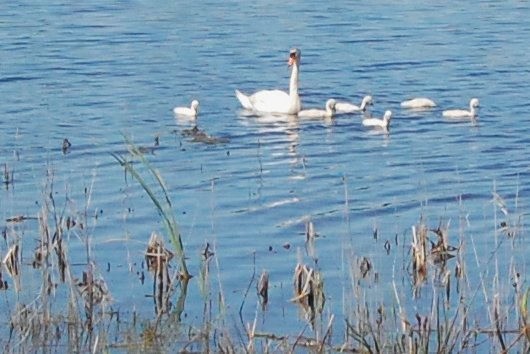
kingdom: Animalia
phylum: Chordata
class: Aves
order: Anseriformes
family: Anatidae
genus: Cygnus
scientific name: Cygnus olor
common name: Mute swan
